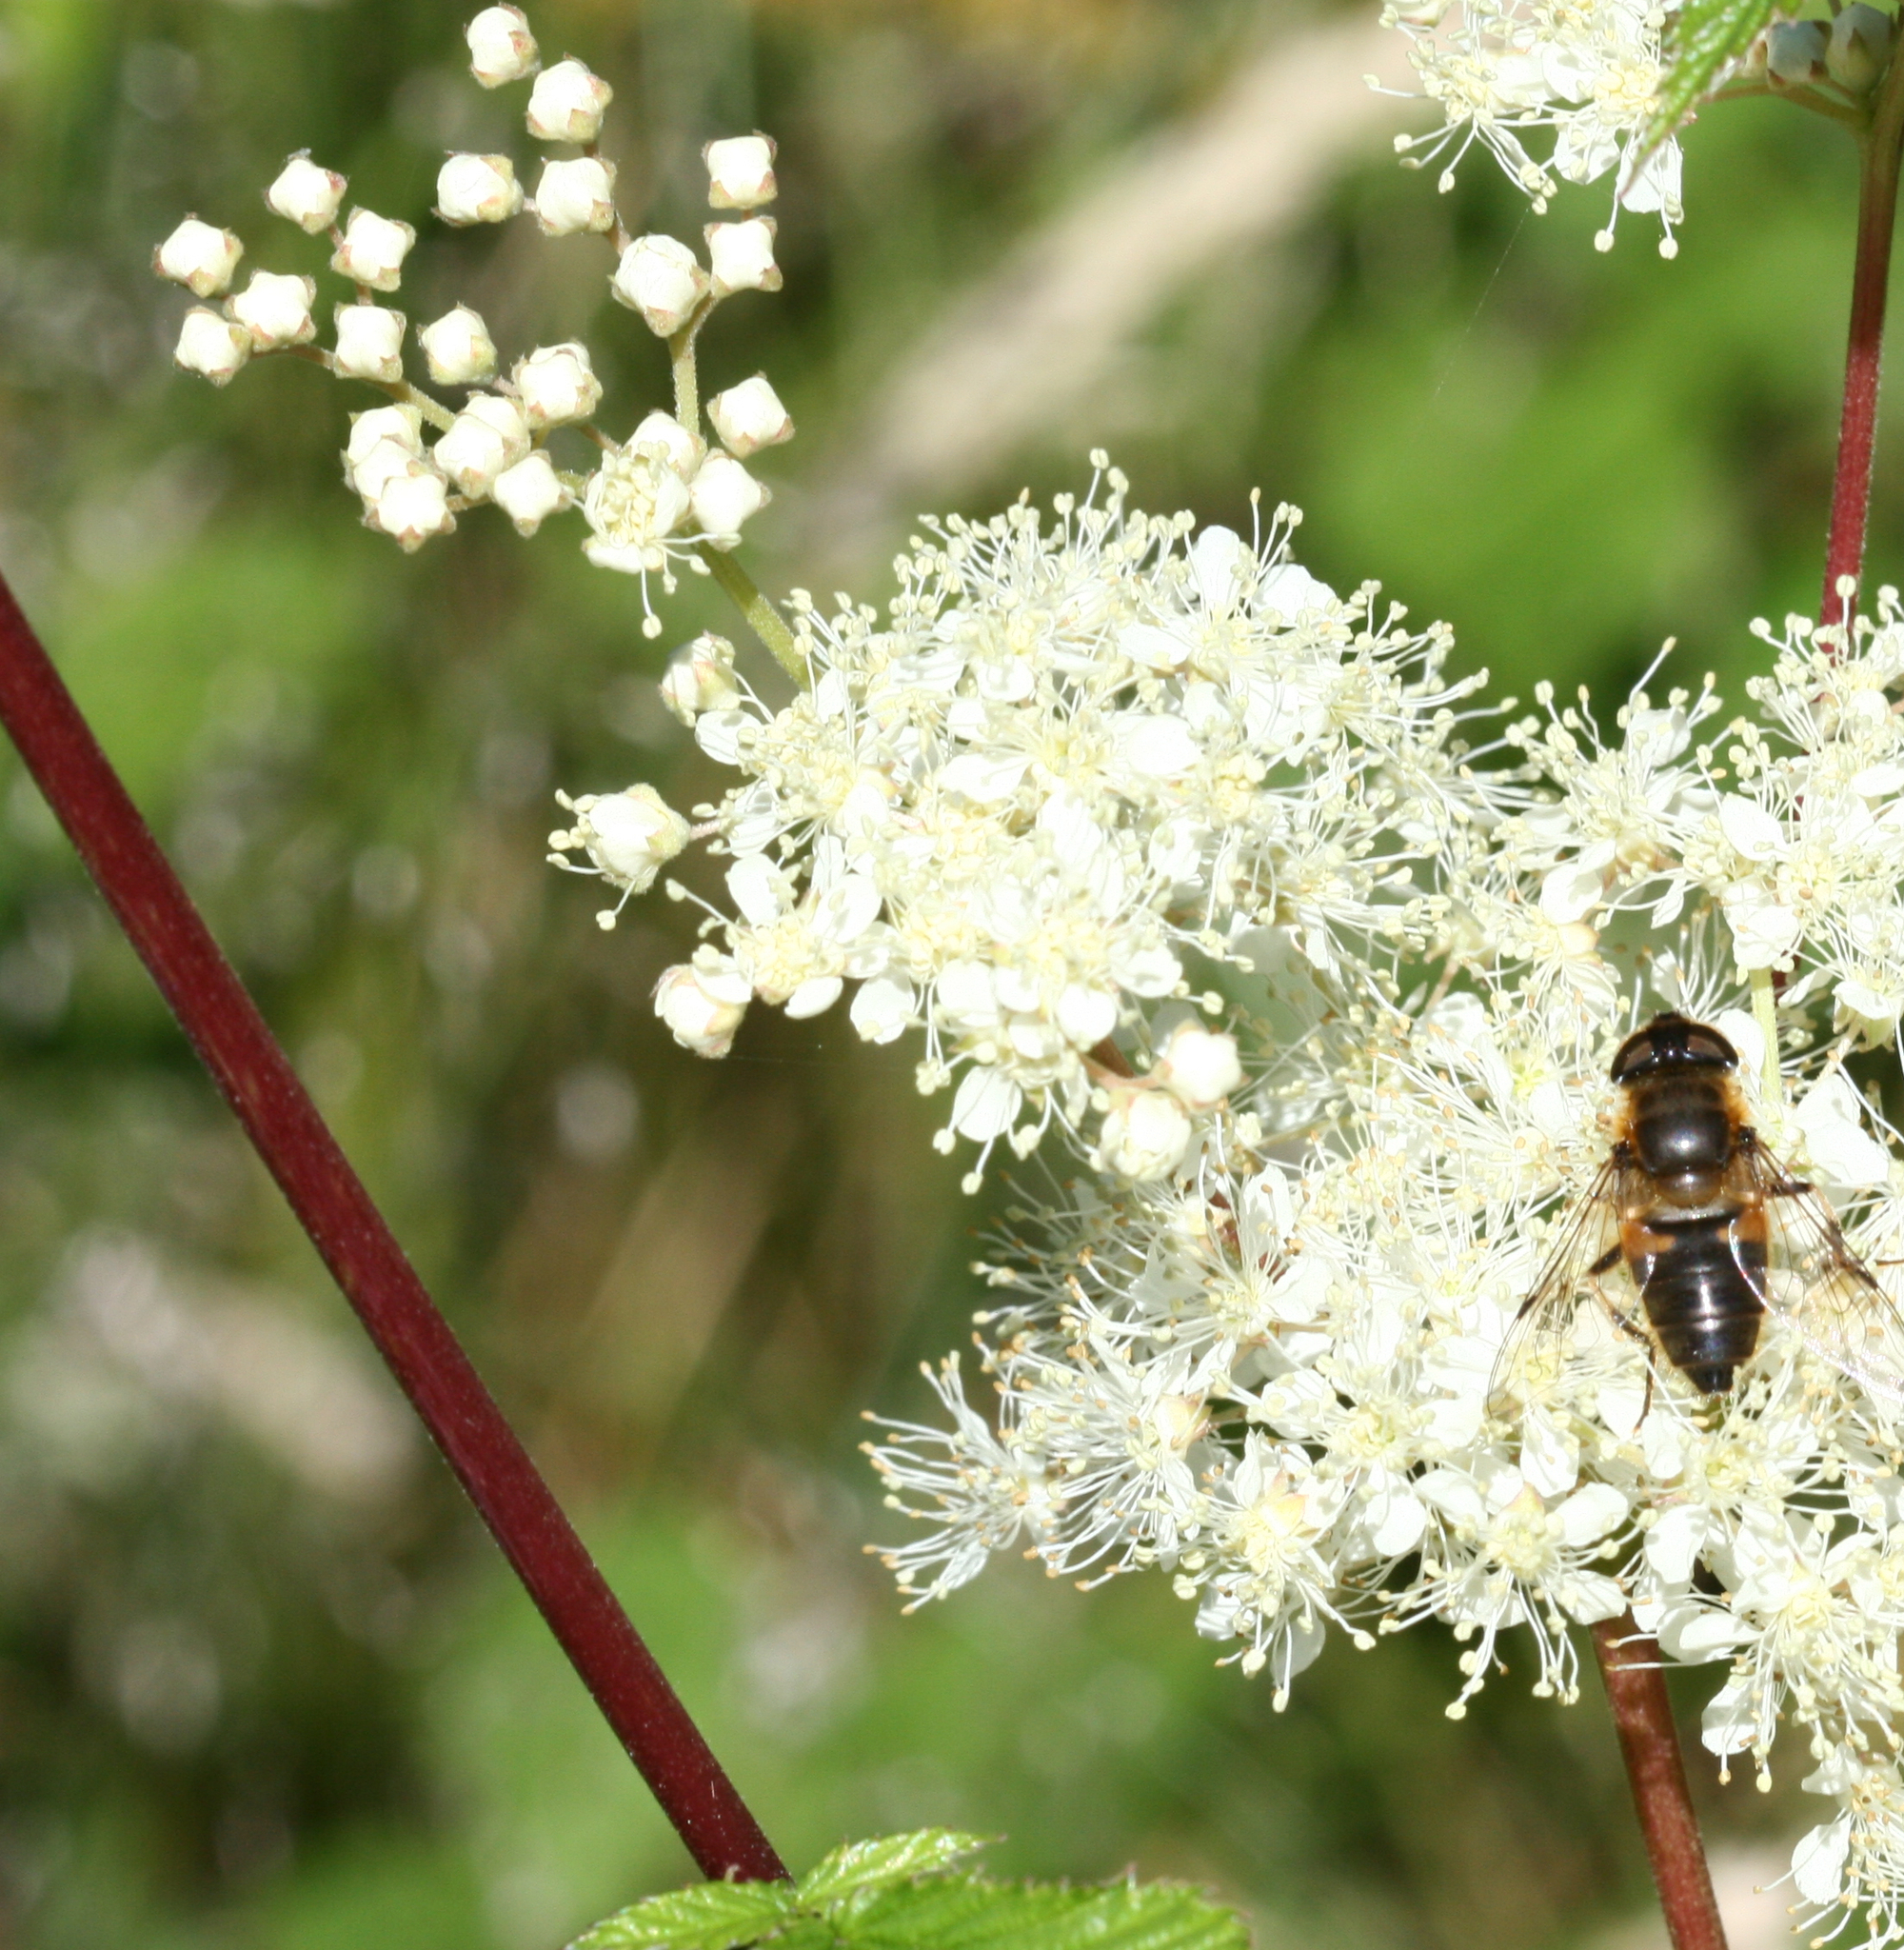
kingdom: Plantae
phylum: Tracheophyta
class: Magnoliopsida
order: Rosales
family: Rosaceae
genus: Filipendula
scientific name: Filipendula ulmaria
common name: Meadowsweet
